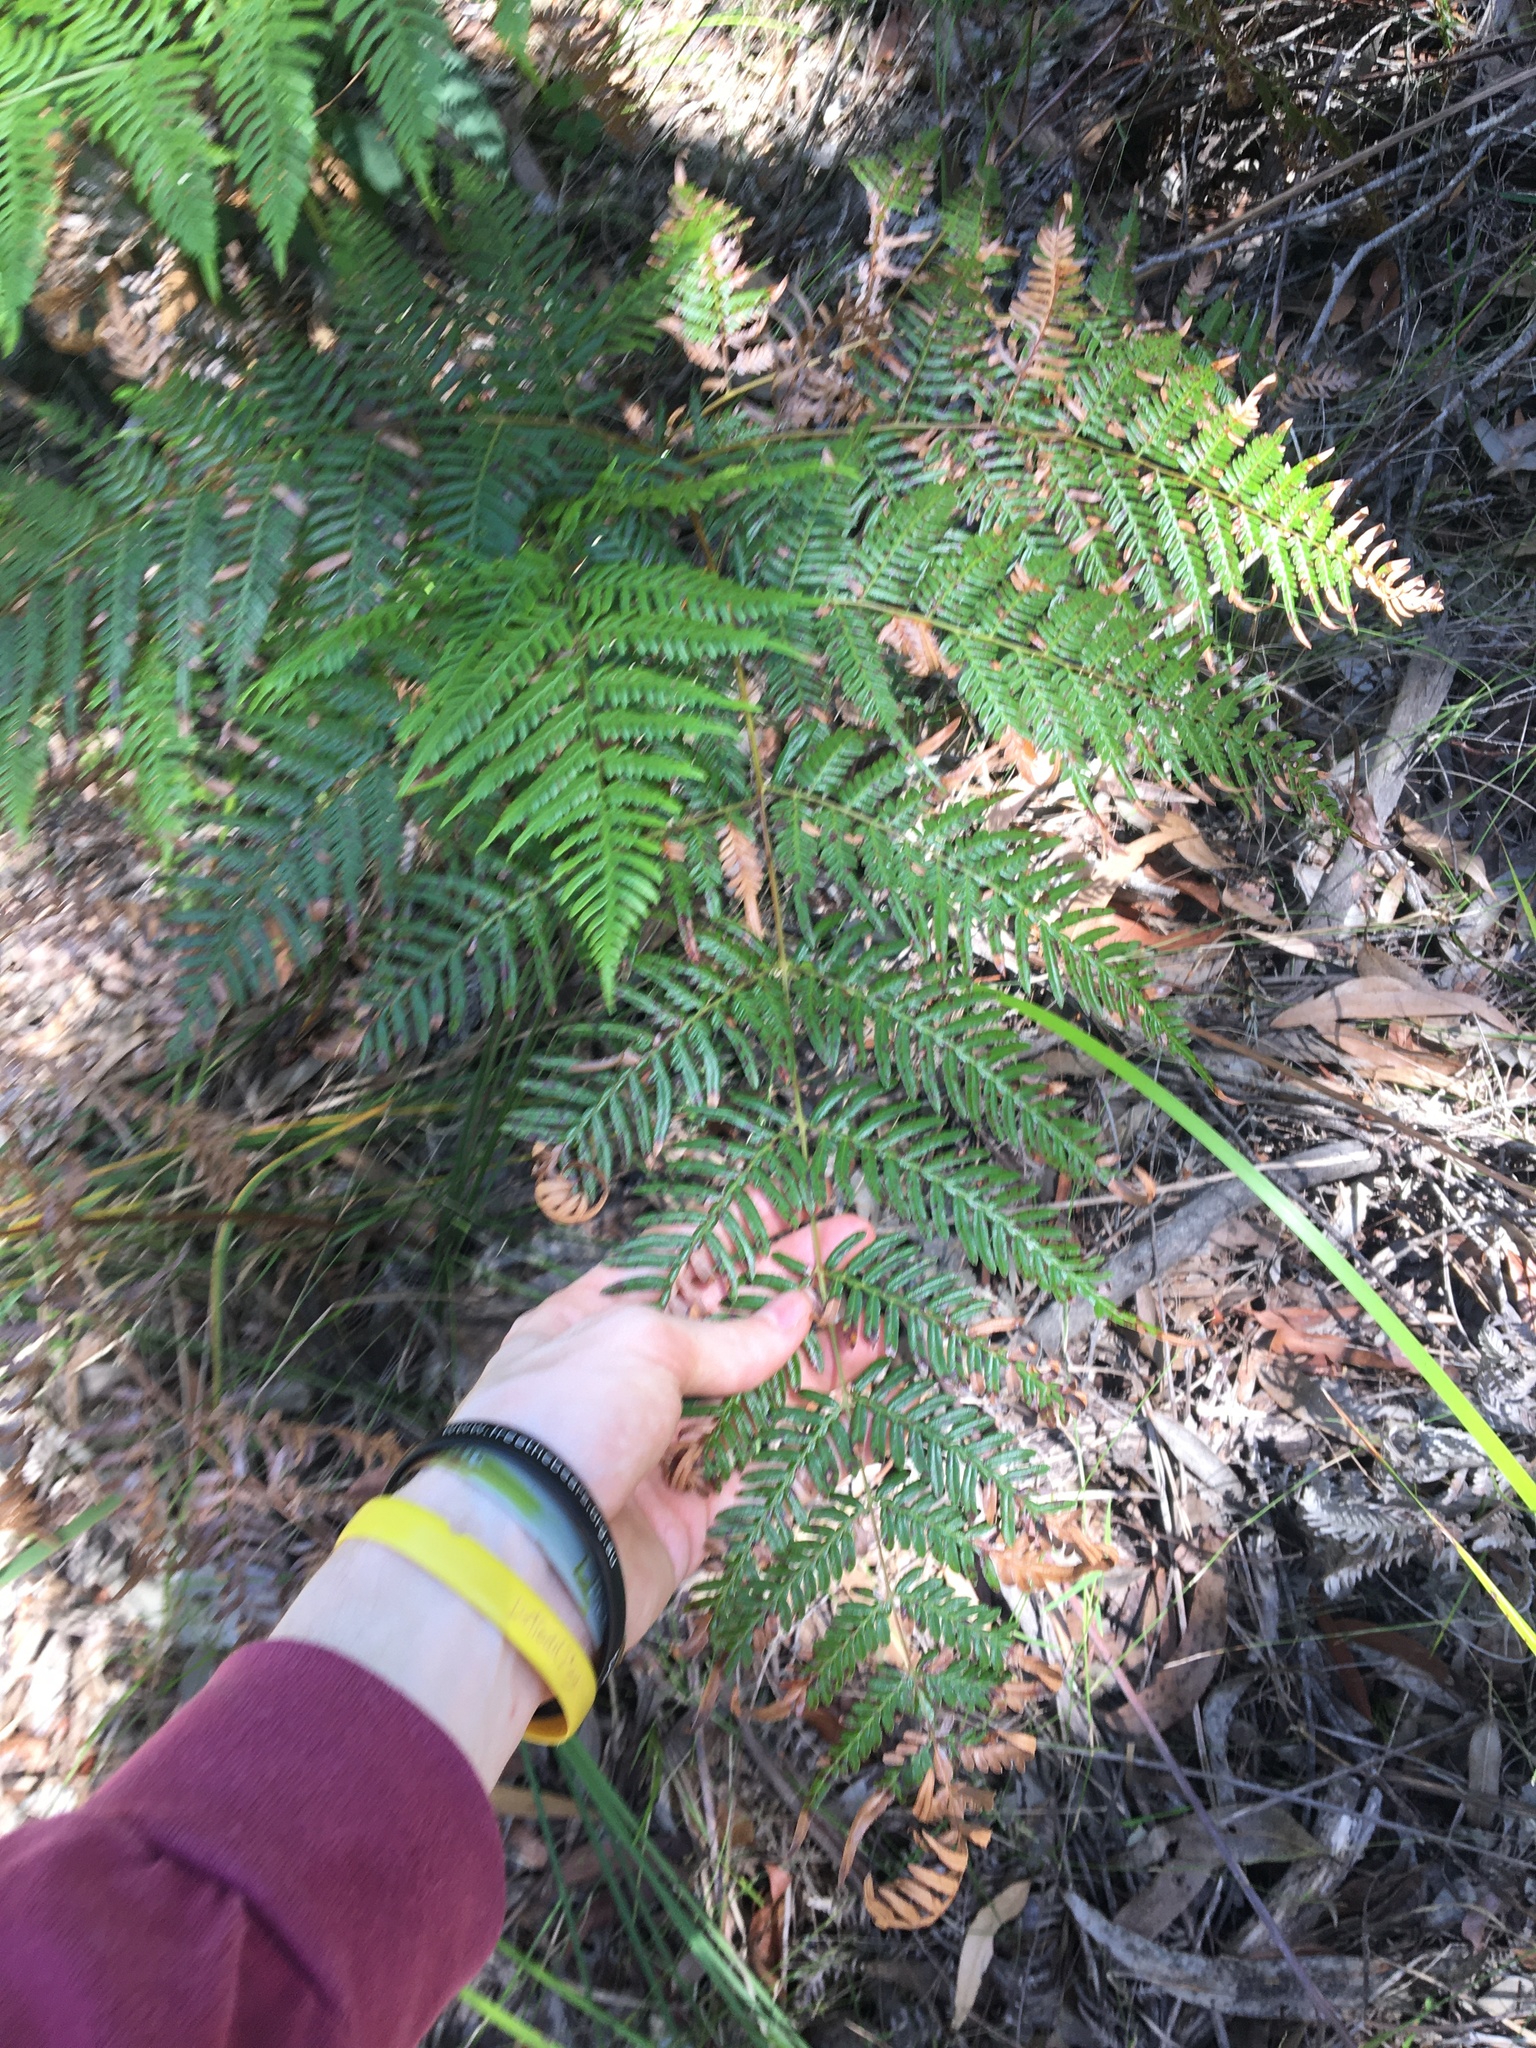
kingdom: Plantae
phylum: Tracheophyta
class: Polypodiopsida
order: Polypodiales
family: Dennstaedtiaceae
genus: Pteridium
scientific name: Pteridium esculentum
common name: Bracken fern
